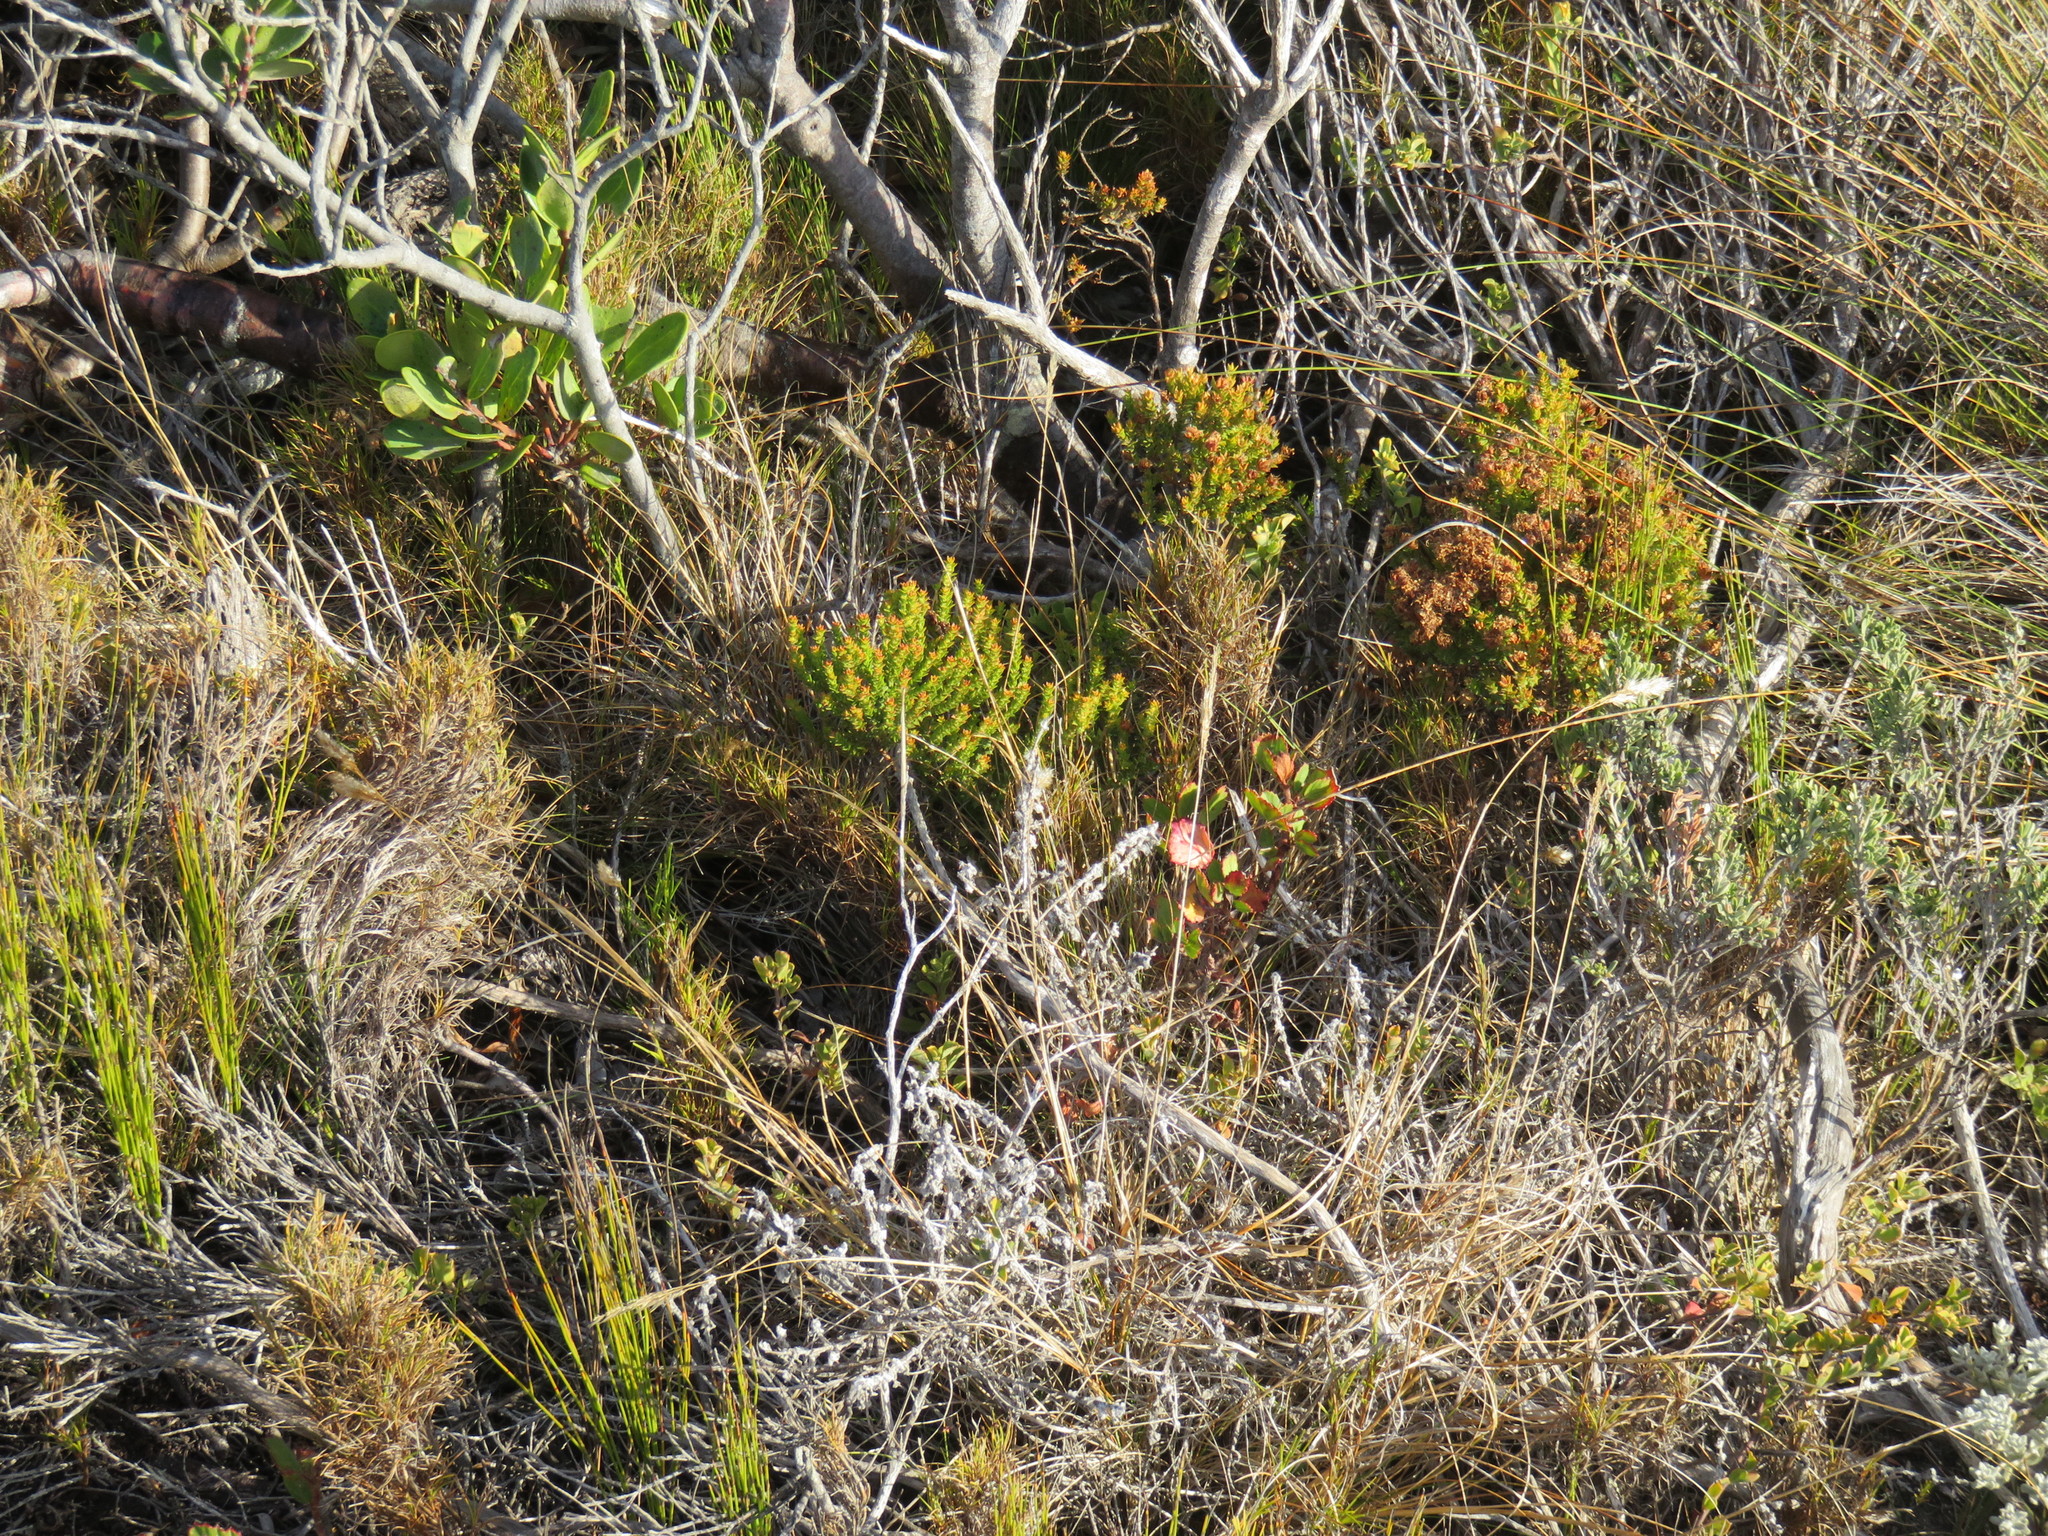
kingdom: Plantae
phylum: Tracheophyta
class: Liliopsida
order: Poales
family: Restionaceae
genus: Restio
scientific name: Restio eleocharis
